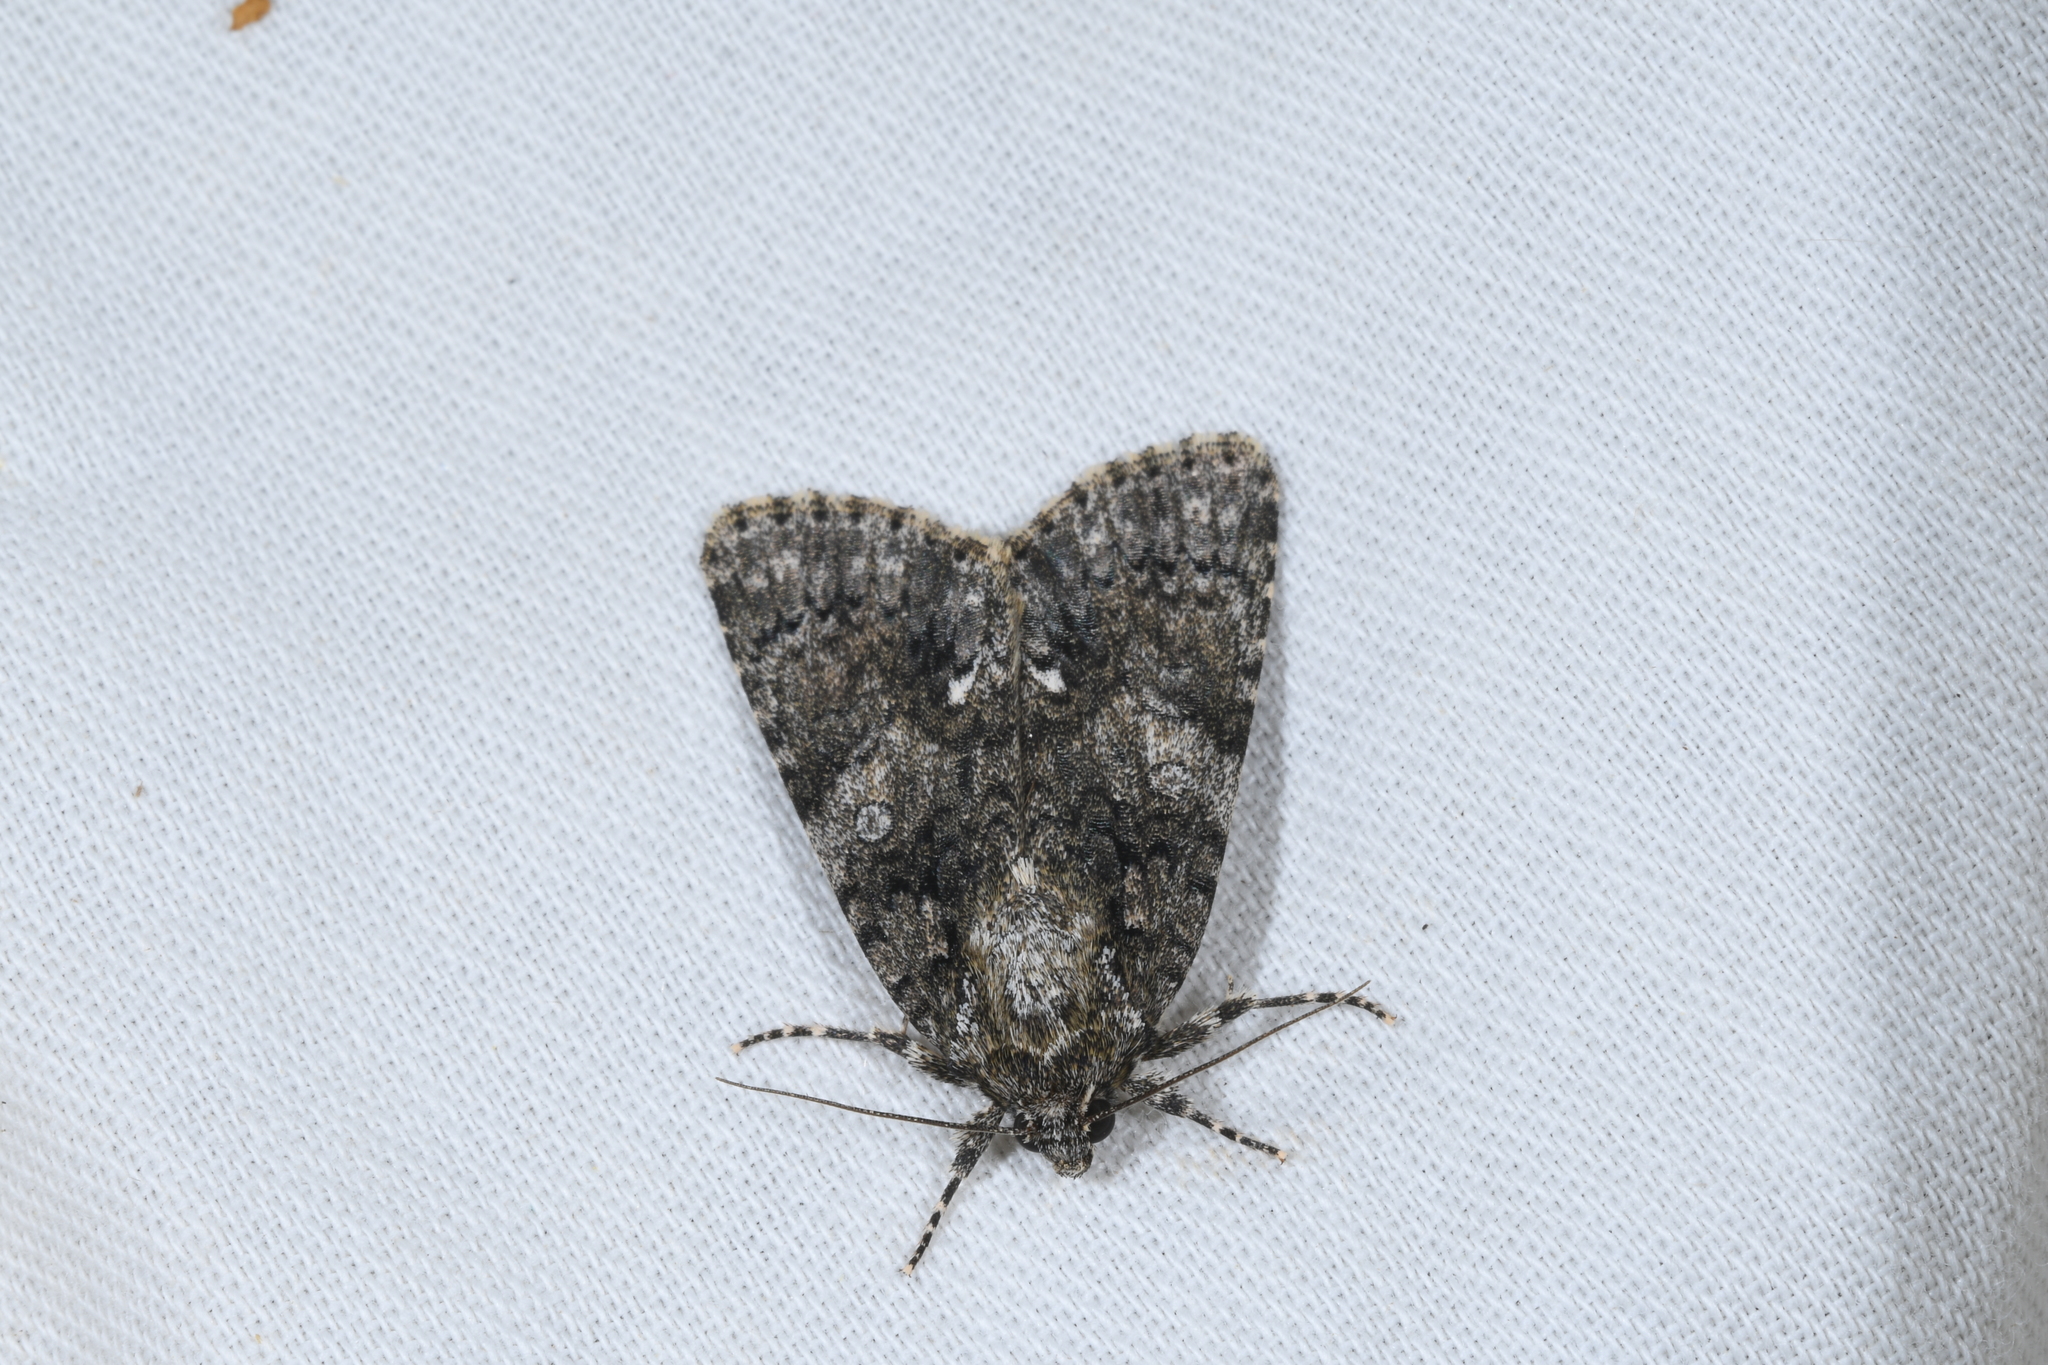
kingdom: Animalia
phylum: Arthropoda
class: Insecta
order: Lepidoptera
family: Noctuidae
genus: Acronicta
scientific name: Acronicta rumicis
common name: Knot grass
